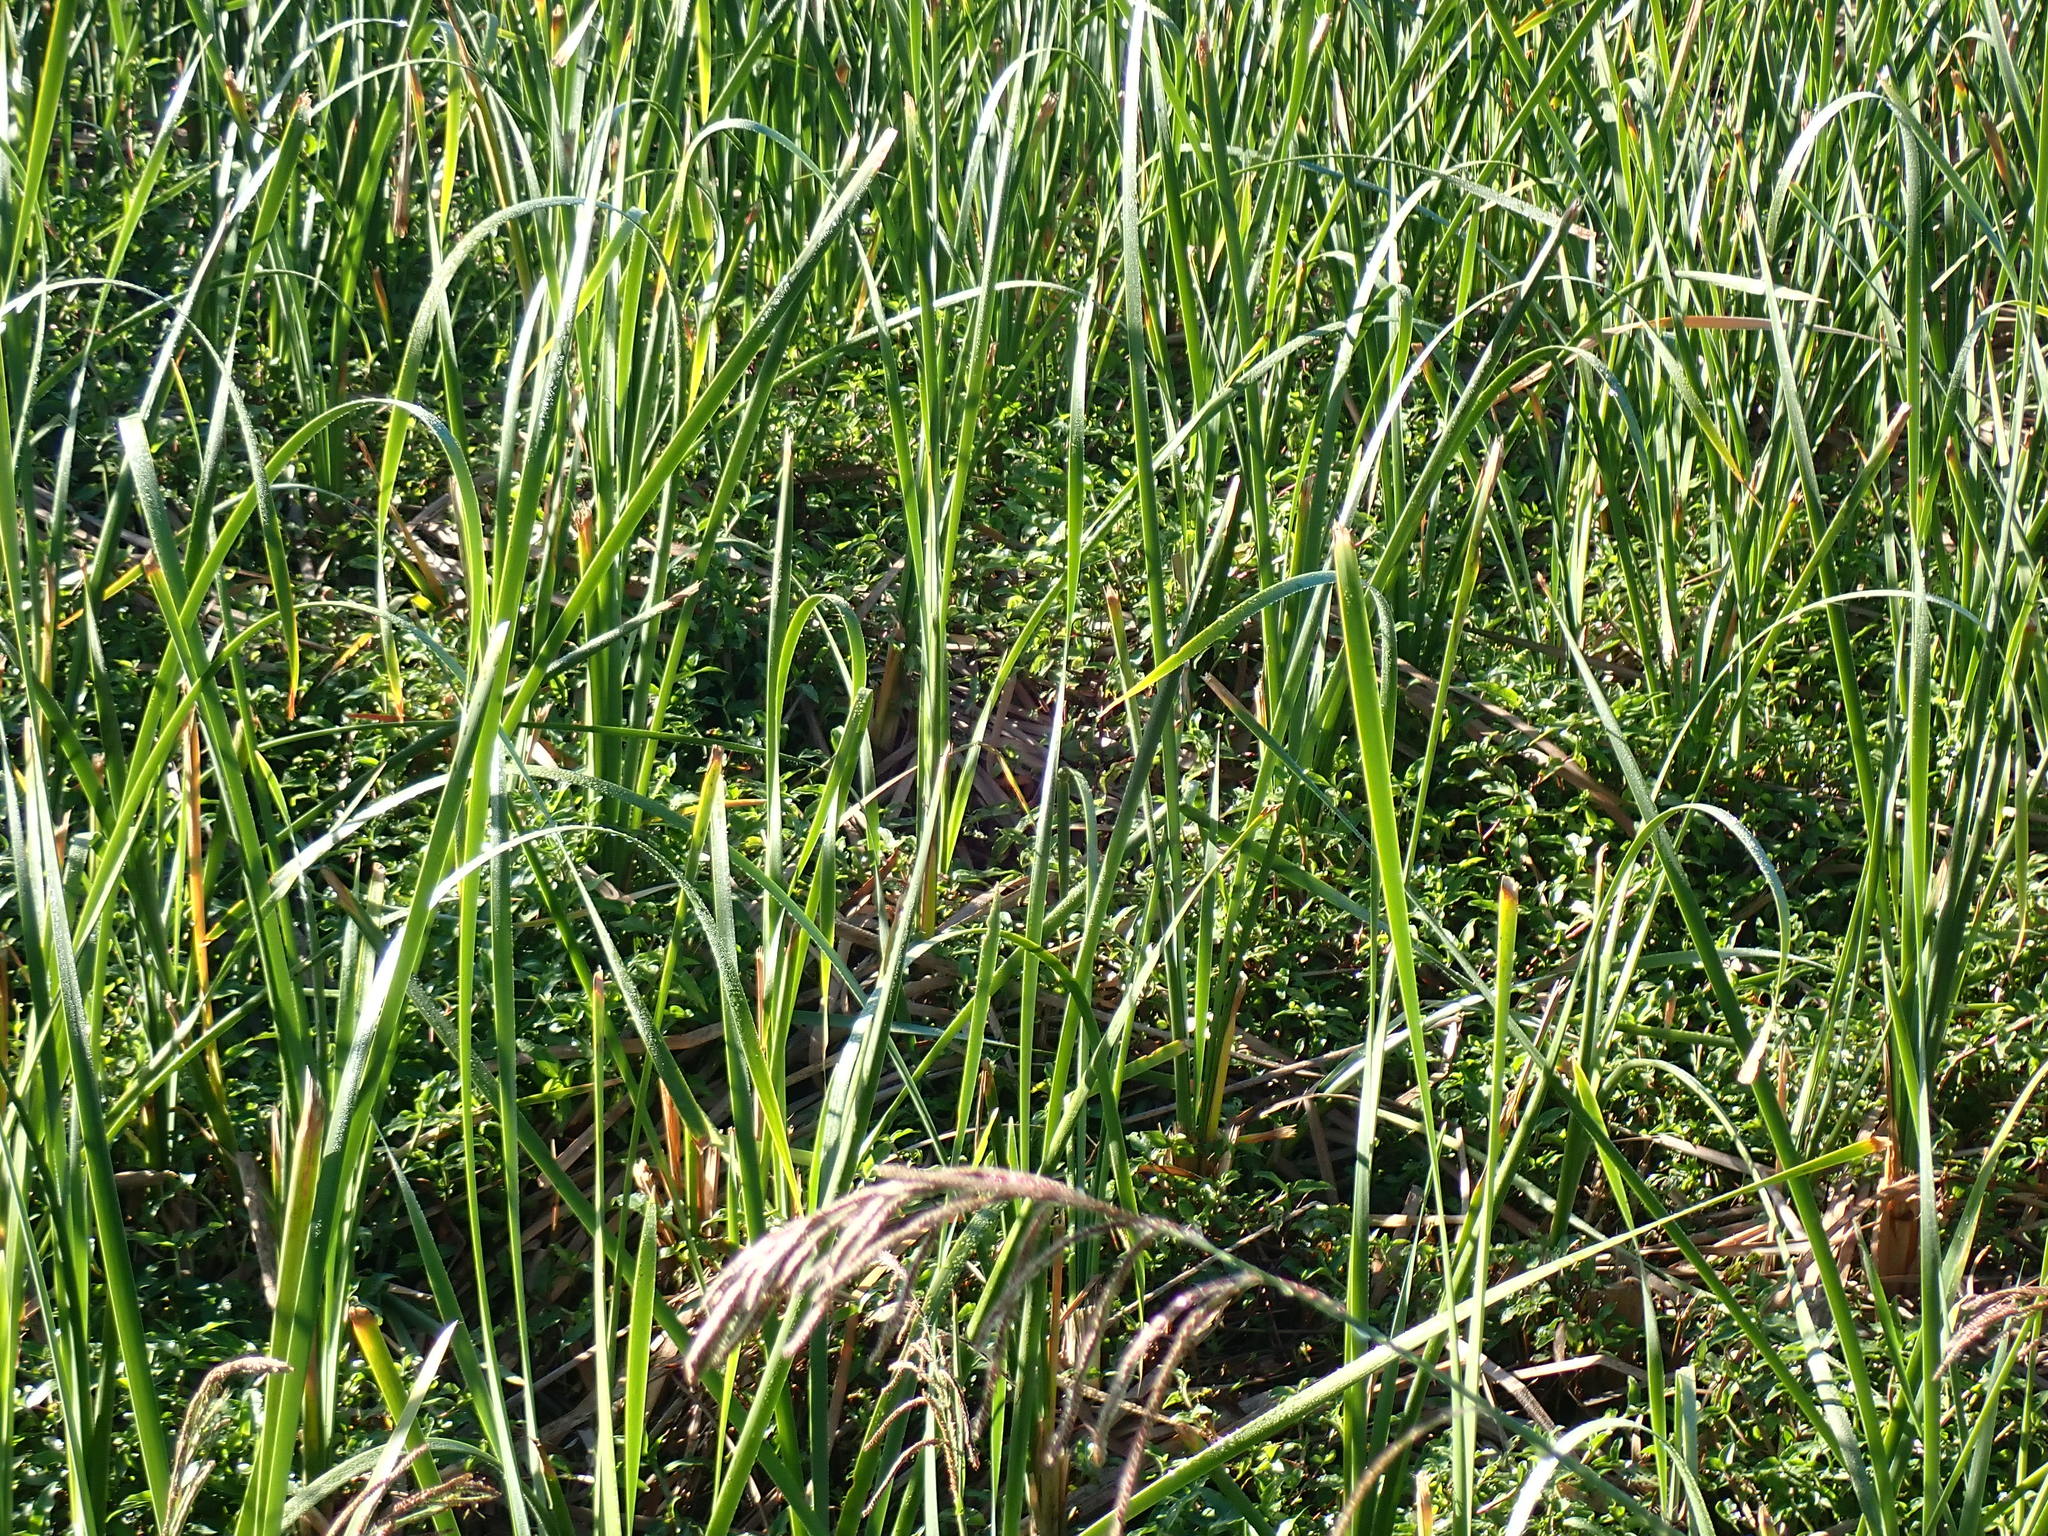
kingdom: Plantae
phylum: Tracheophyta
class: Liliopsida
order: Poales
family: Typhaceae
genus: Typha
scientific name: Typha capensis
